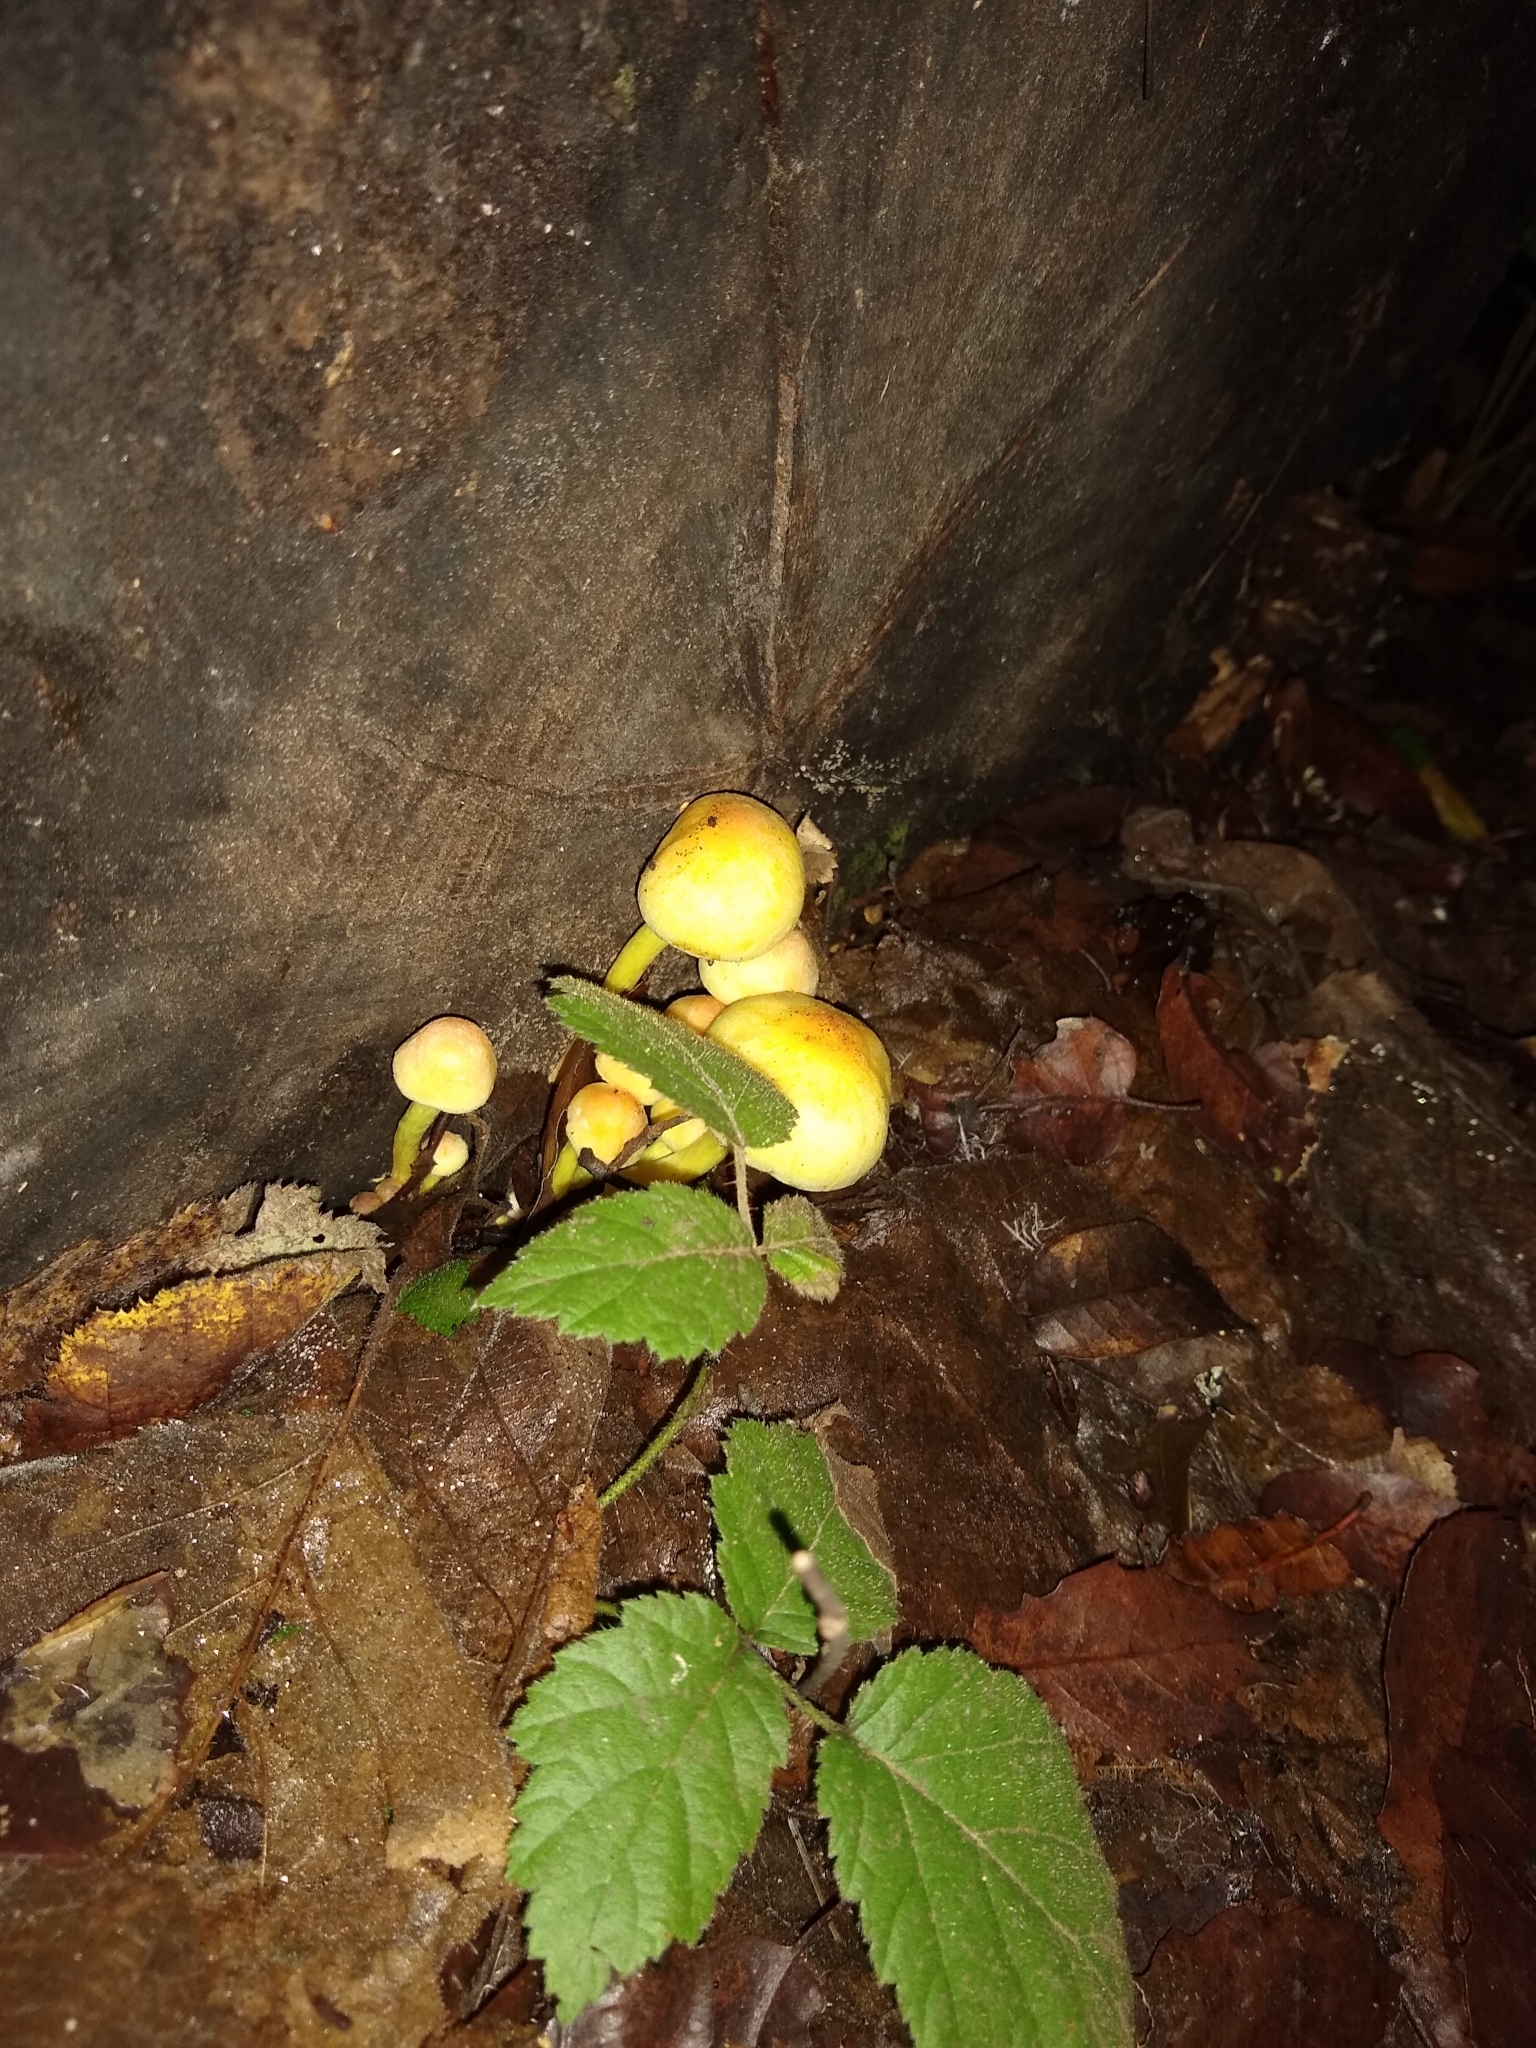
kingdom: Fungi
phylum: Basidiomycota
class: Agaricomycetes
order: Agaricales
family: Strophariaceae
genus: Hypholoma
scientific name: Hypholoma fasciculare
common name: Sulphur tuft
